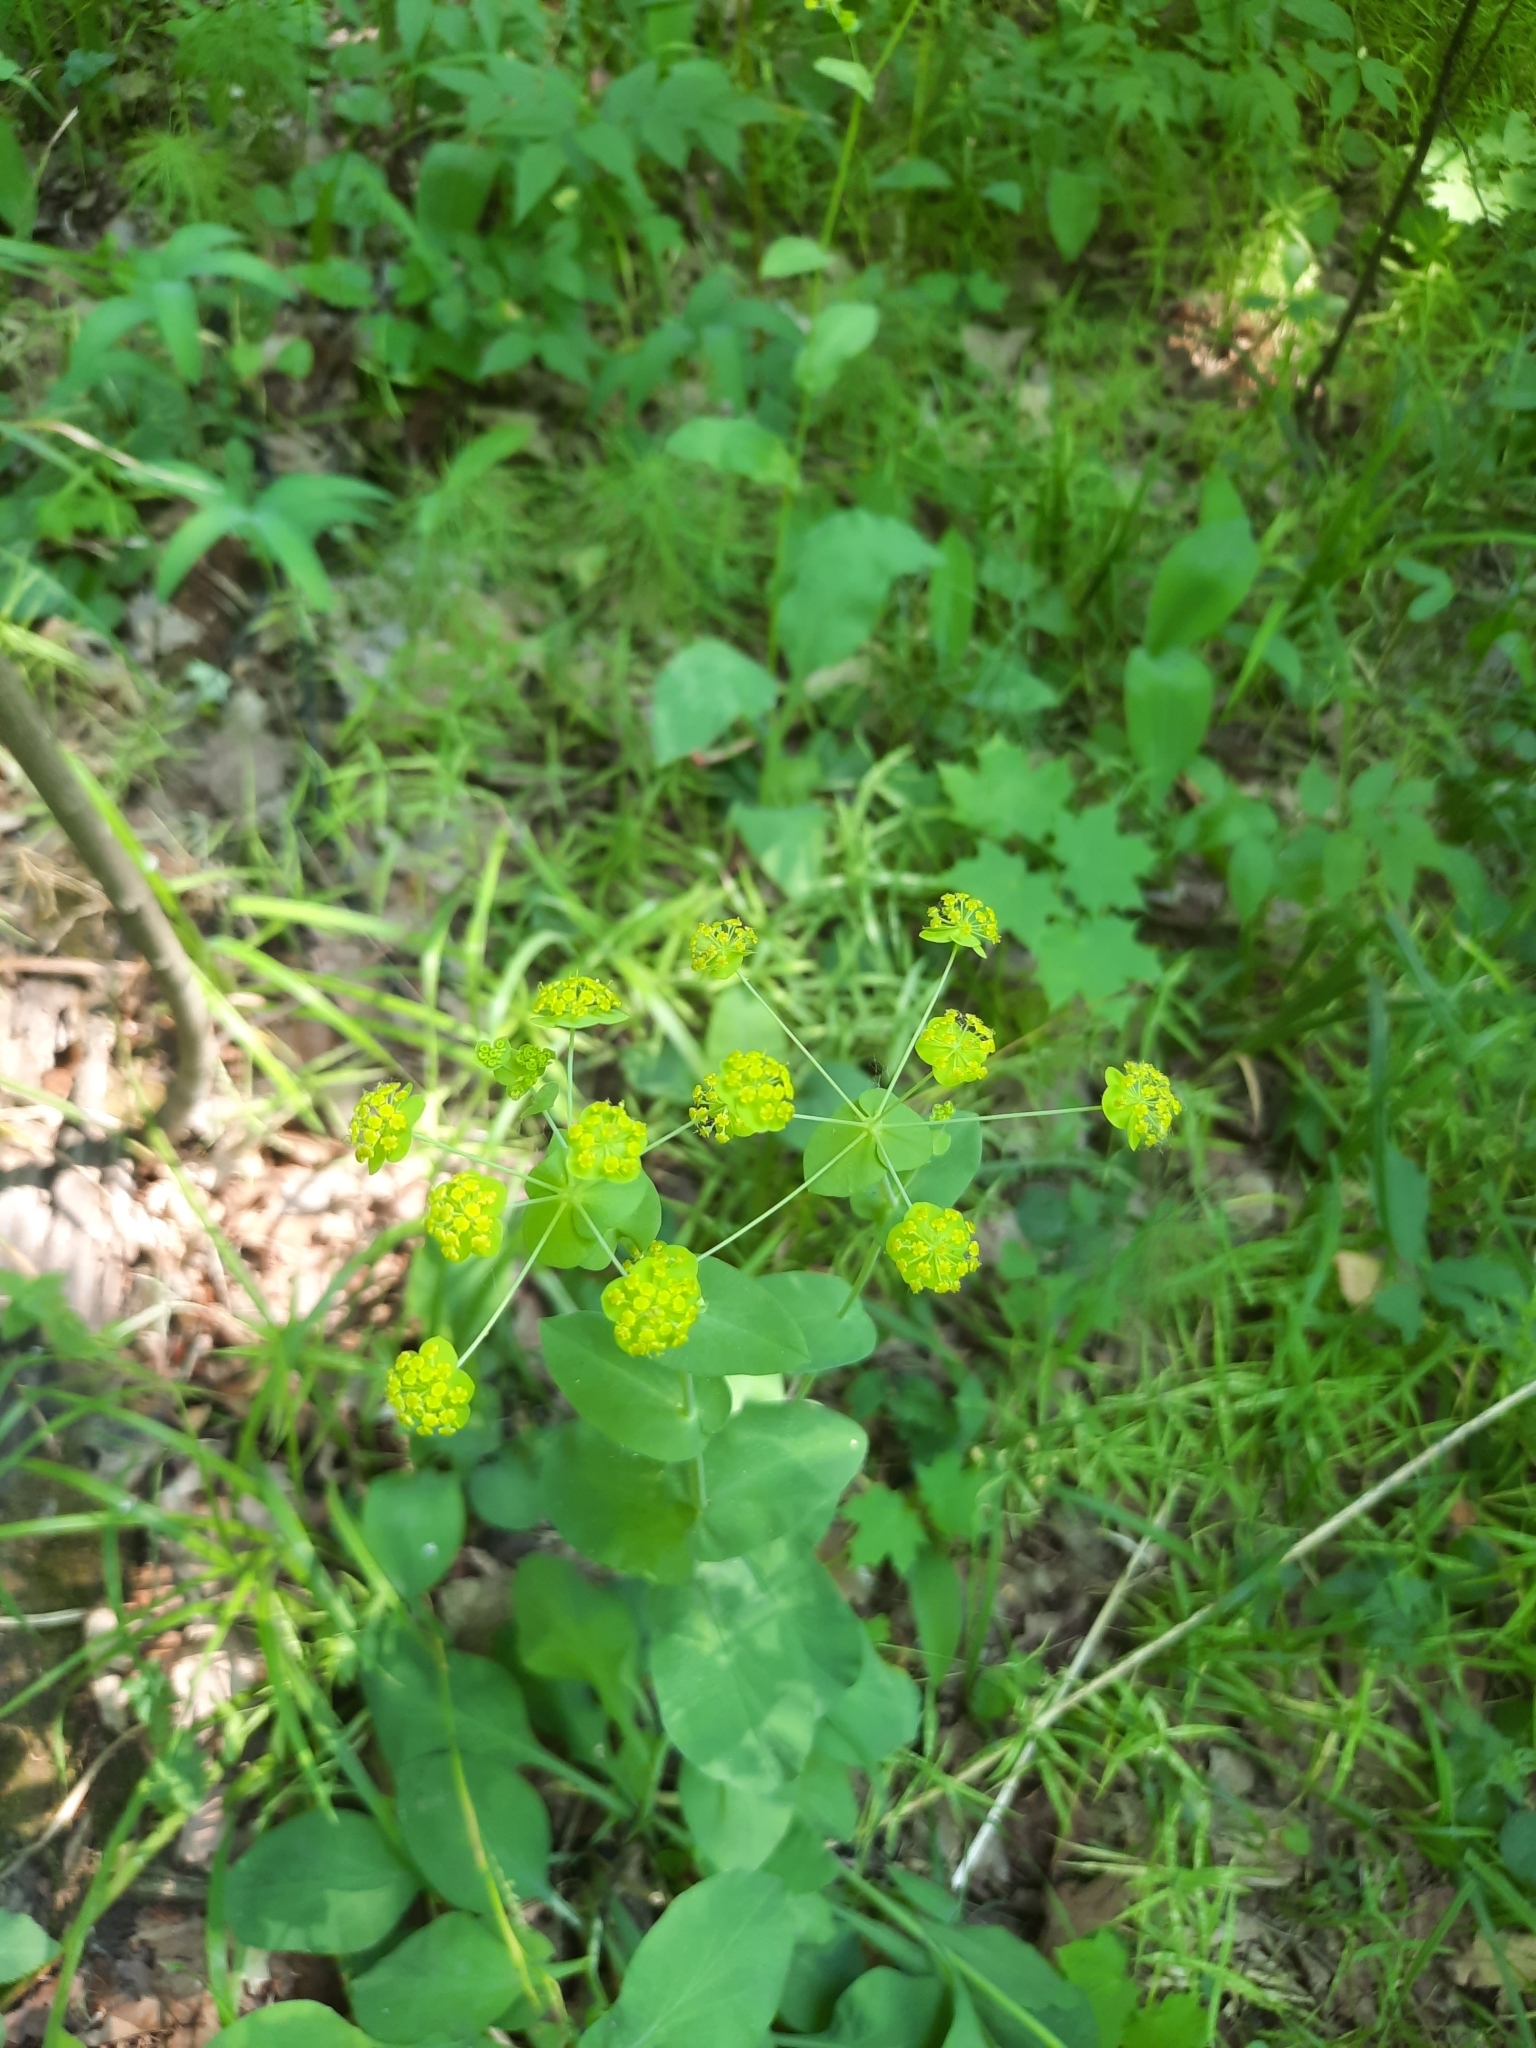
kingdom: Plantae
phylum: Tracheophyta
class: Magnoliopsida
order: Apiales
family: Apiaceae
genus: Bupleurum
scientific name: Bupleurum aureum
